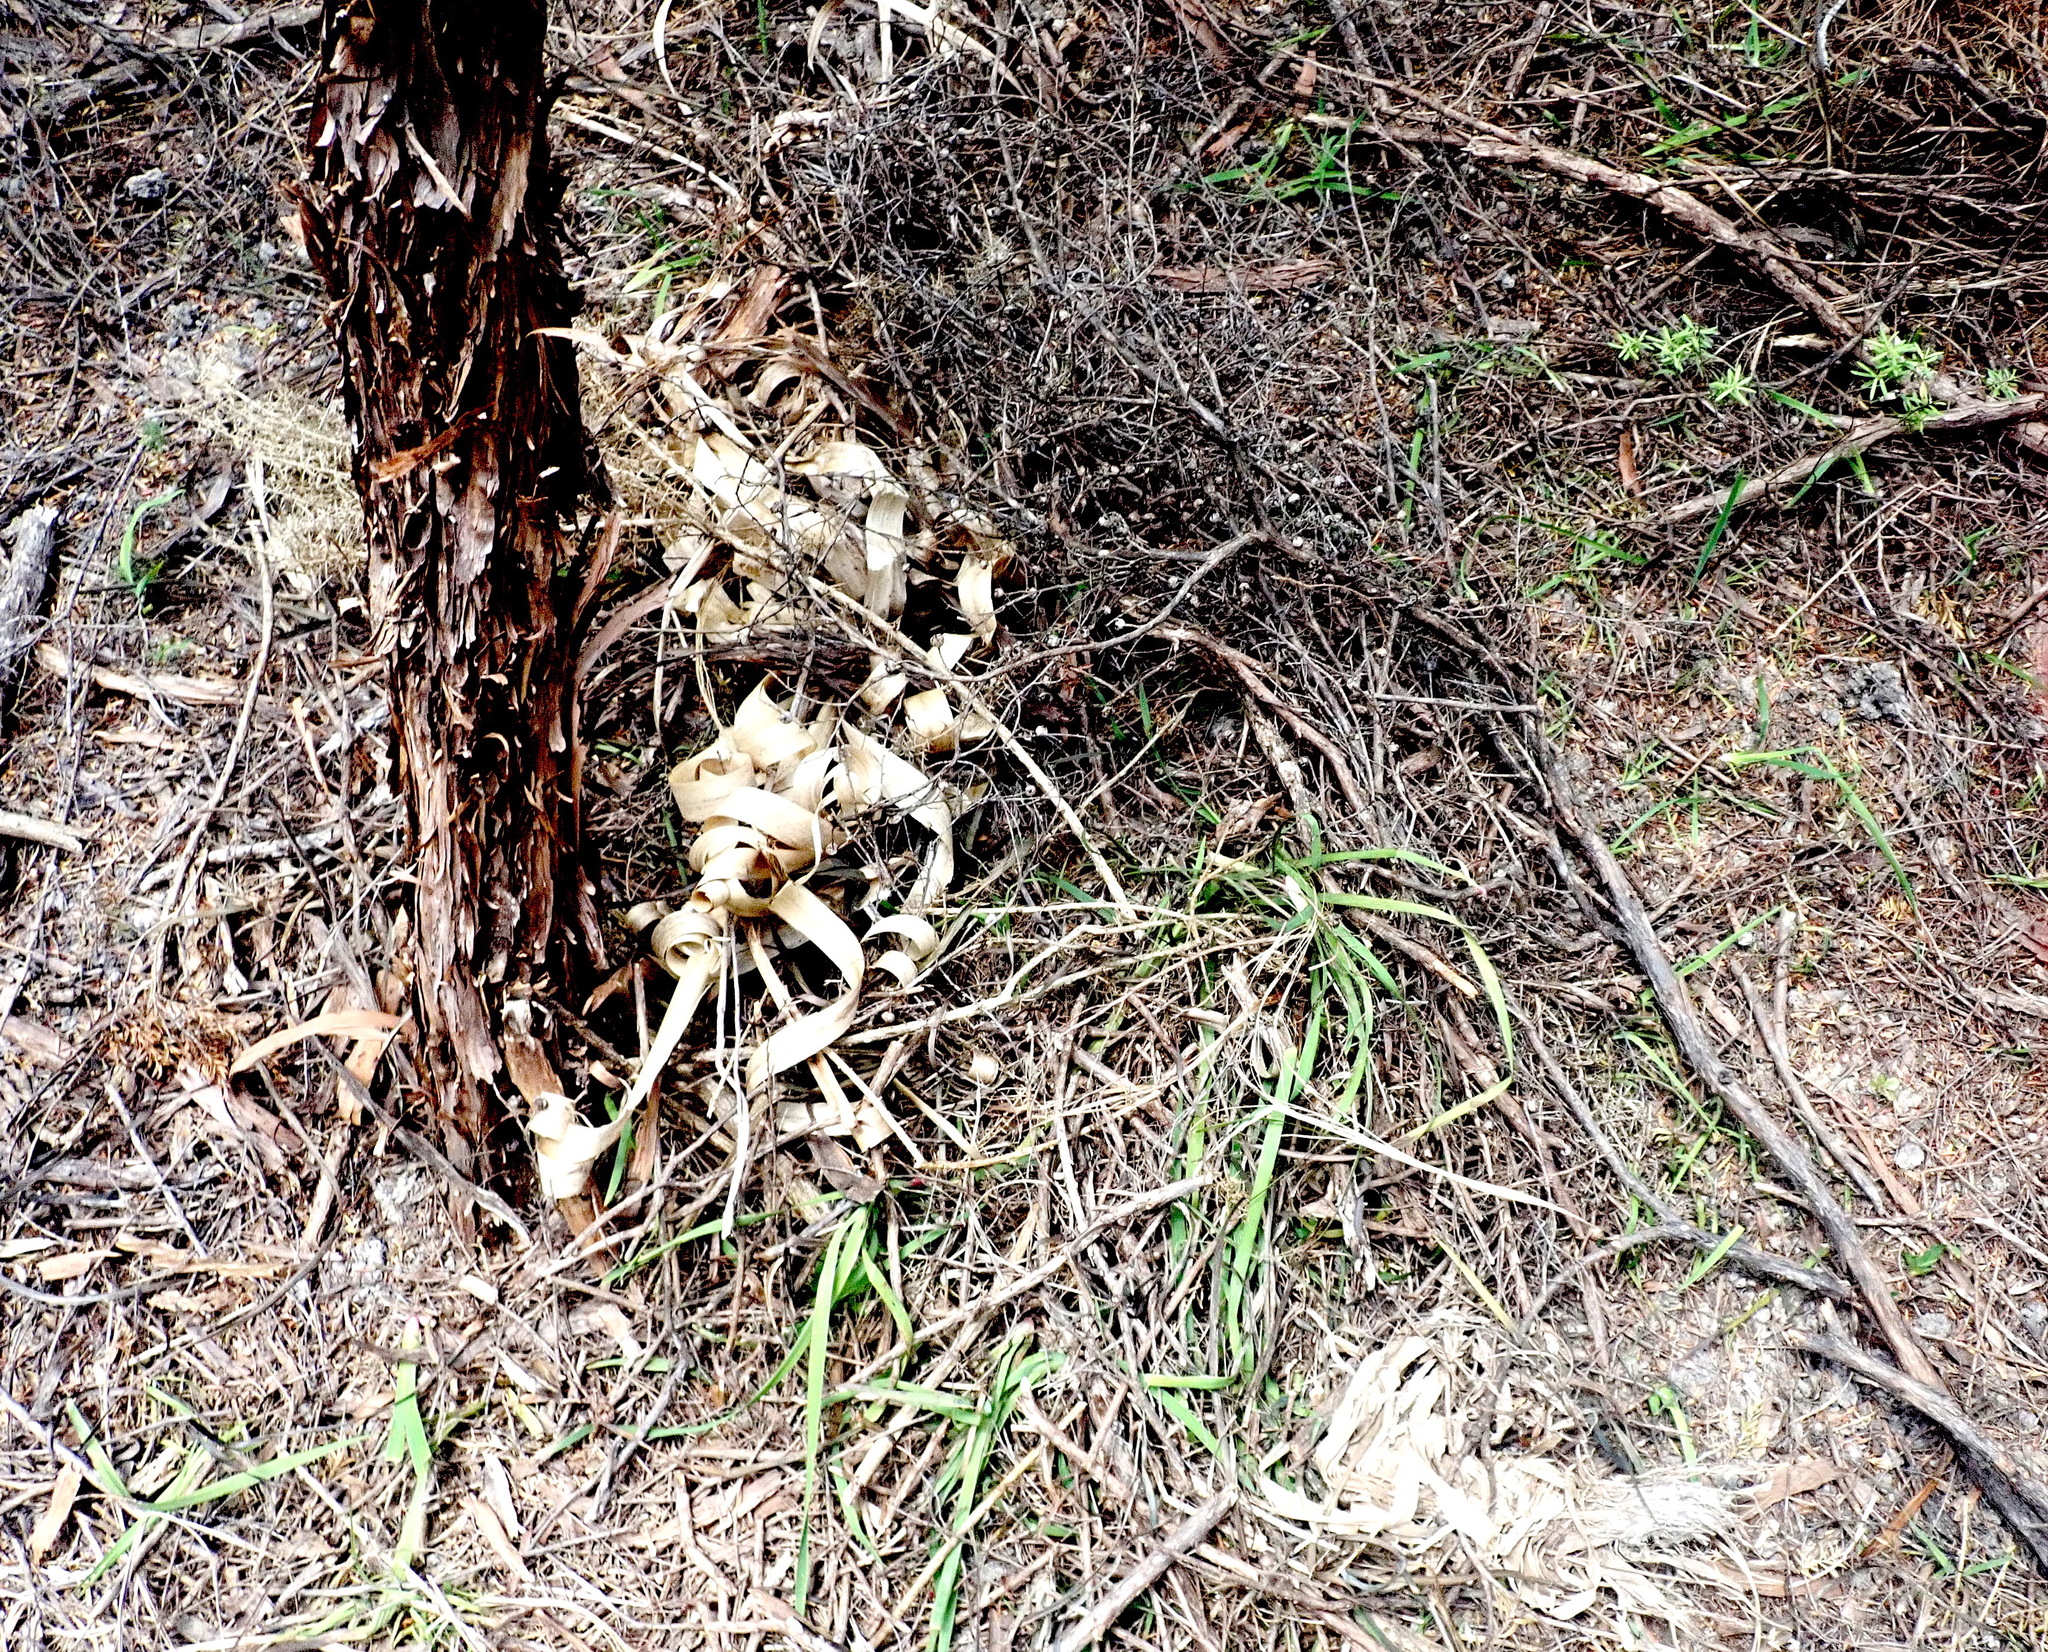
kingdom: Plantae
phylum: Tracheophyta
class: Liliopsida
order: Asparagales
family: Iridaceae
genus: Aristea
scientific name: Aristea ecklonii
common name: Blue corn-lily
